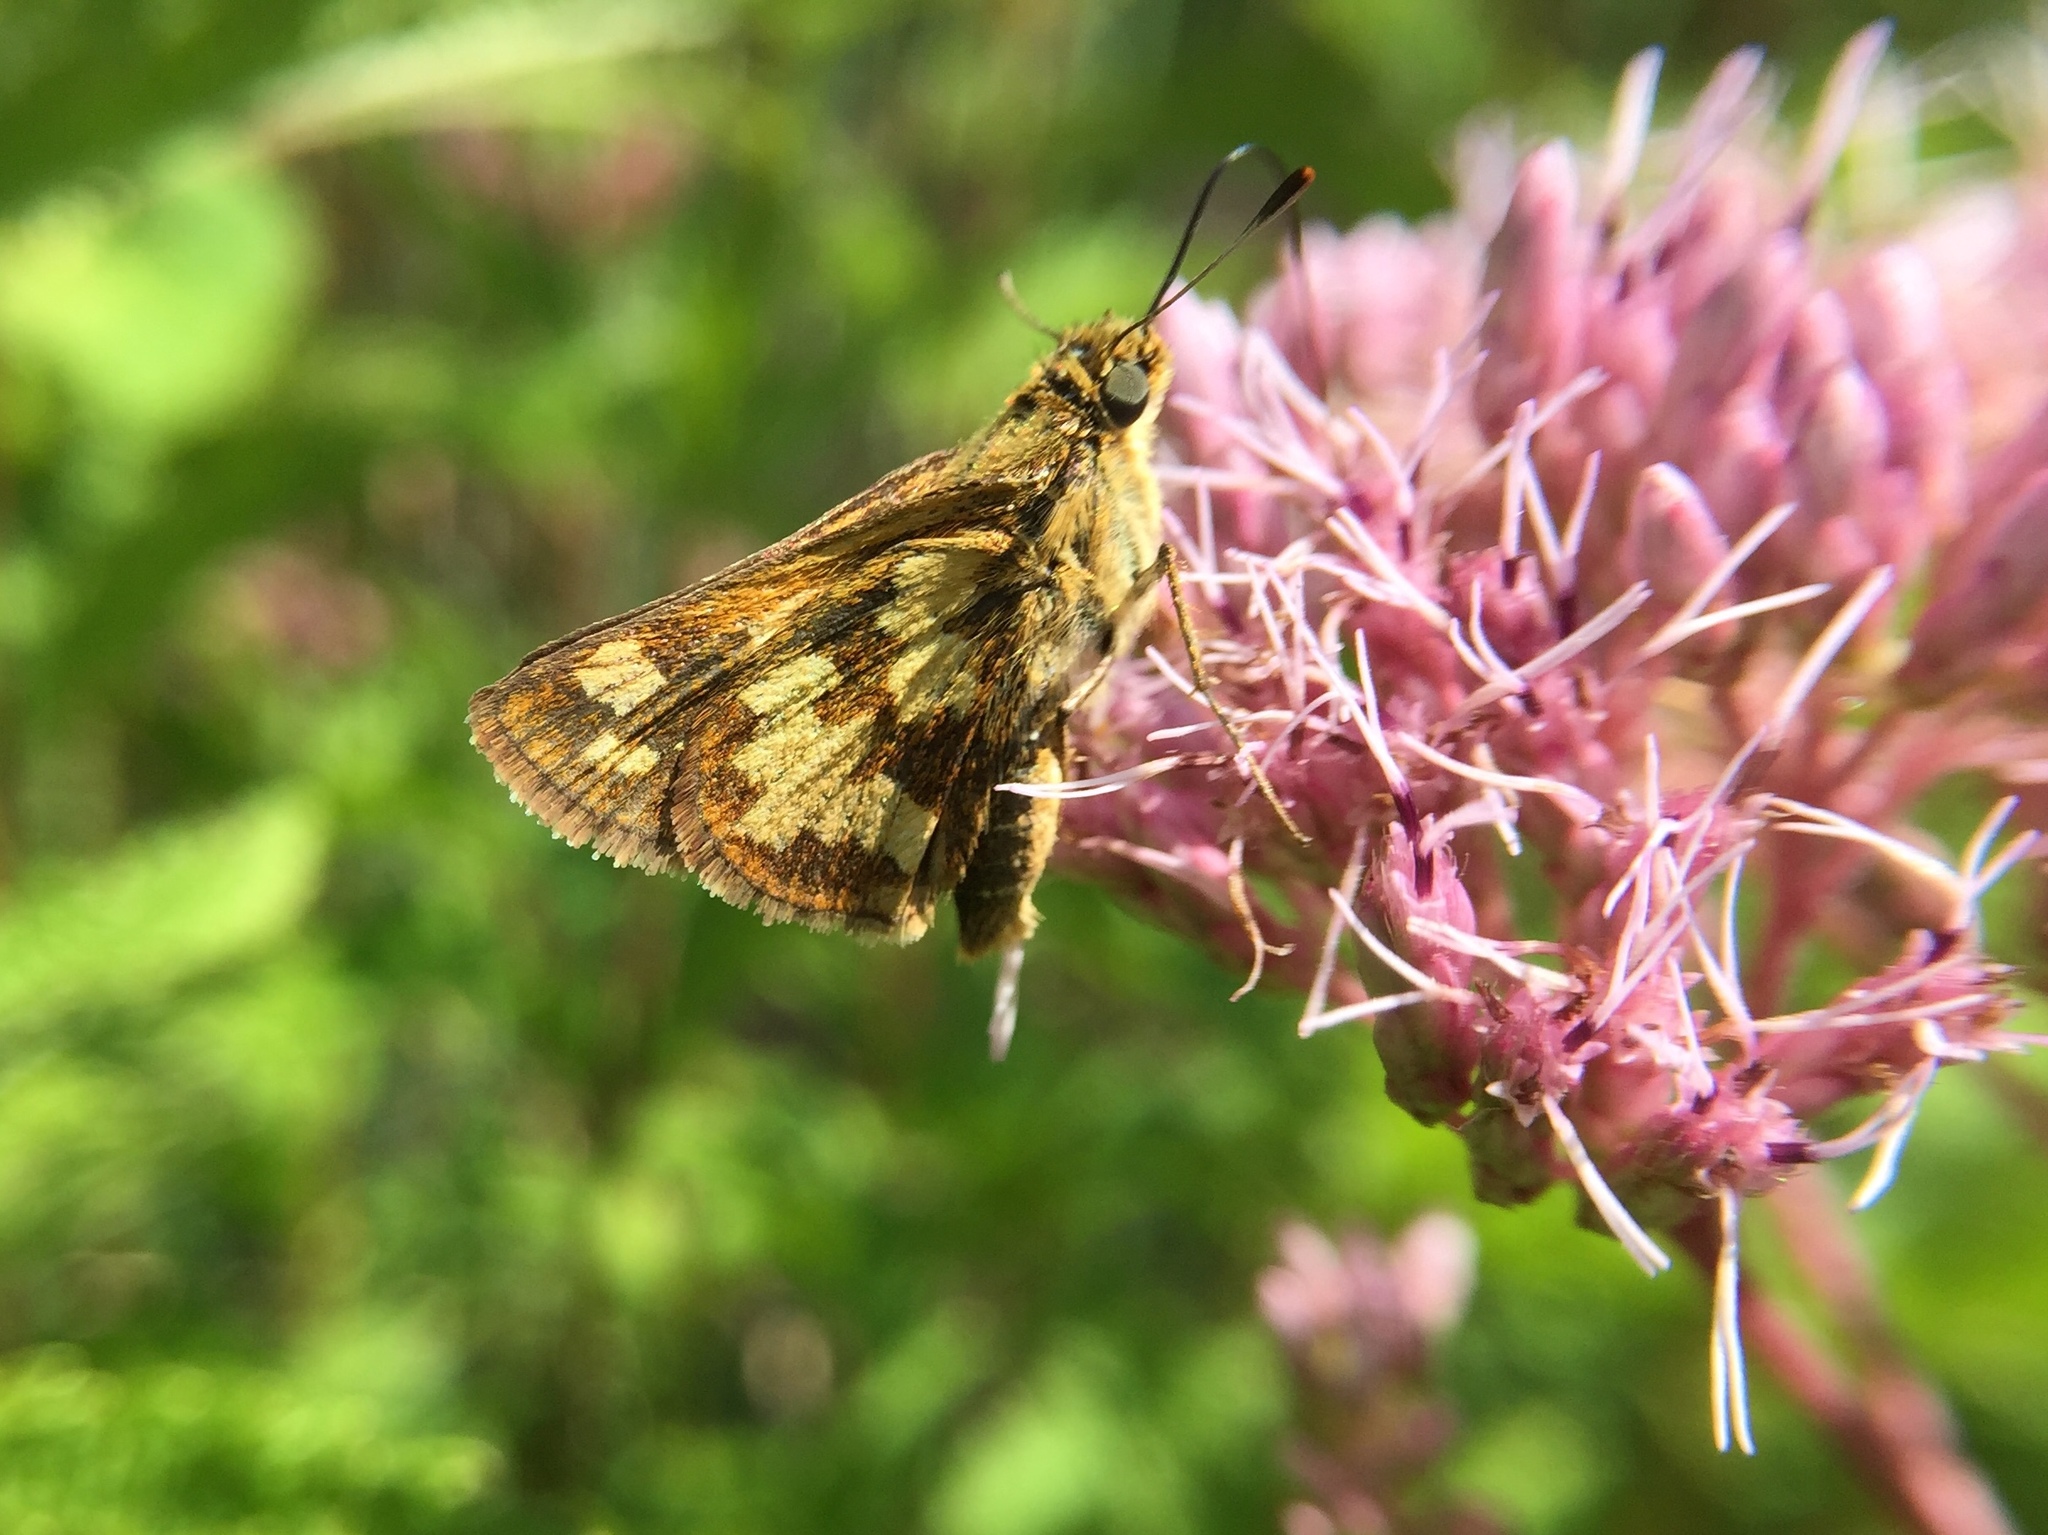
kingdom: Animalia
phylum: Arthropoda
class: Insecta
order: Lepidoptera
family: Hesperiidae
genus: Polites
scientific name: Polites coras
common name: Peck's skipper
